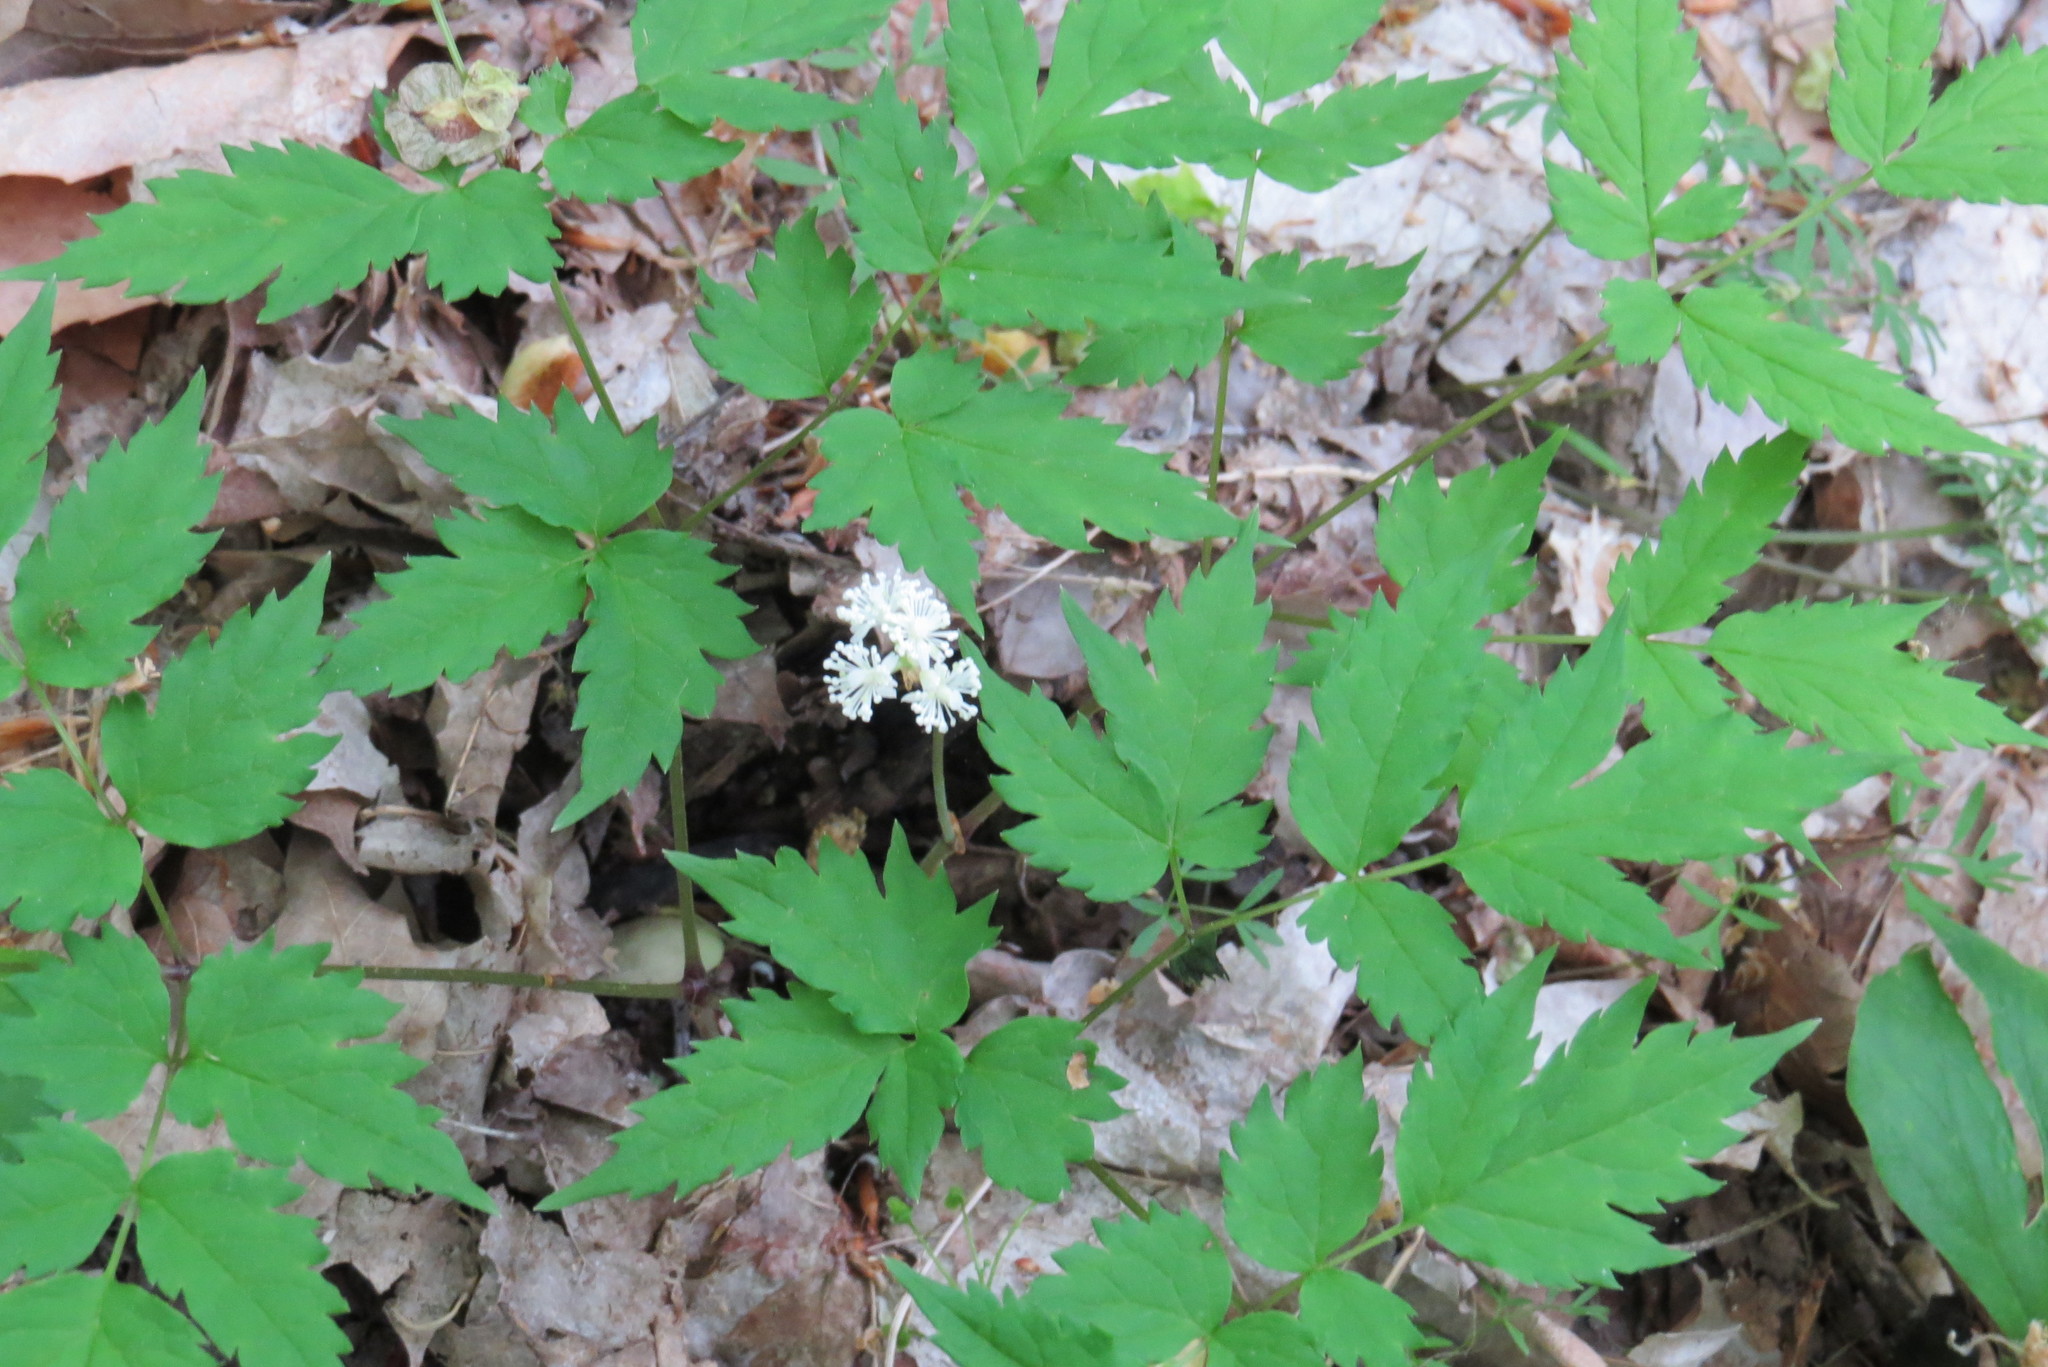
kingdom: Plantae
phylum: Tracheophyta
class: Magnoliopsida
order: Ranunculales
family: Ranunculaceae
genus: Actaea
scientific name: Actaea pachypoda
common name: Doll's-eyes
